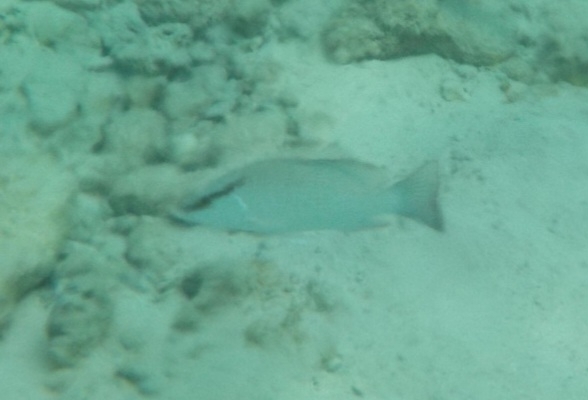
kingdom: Animalia
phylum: Chordata
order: Perciformes
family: Lutjanidae
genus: Lutjanus
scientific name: Lutjanus griseus
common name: Gray snapper
